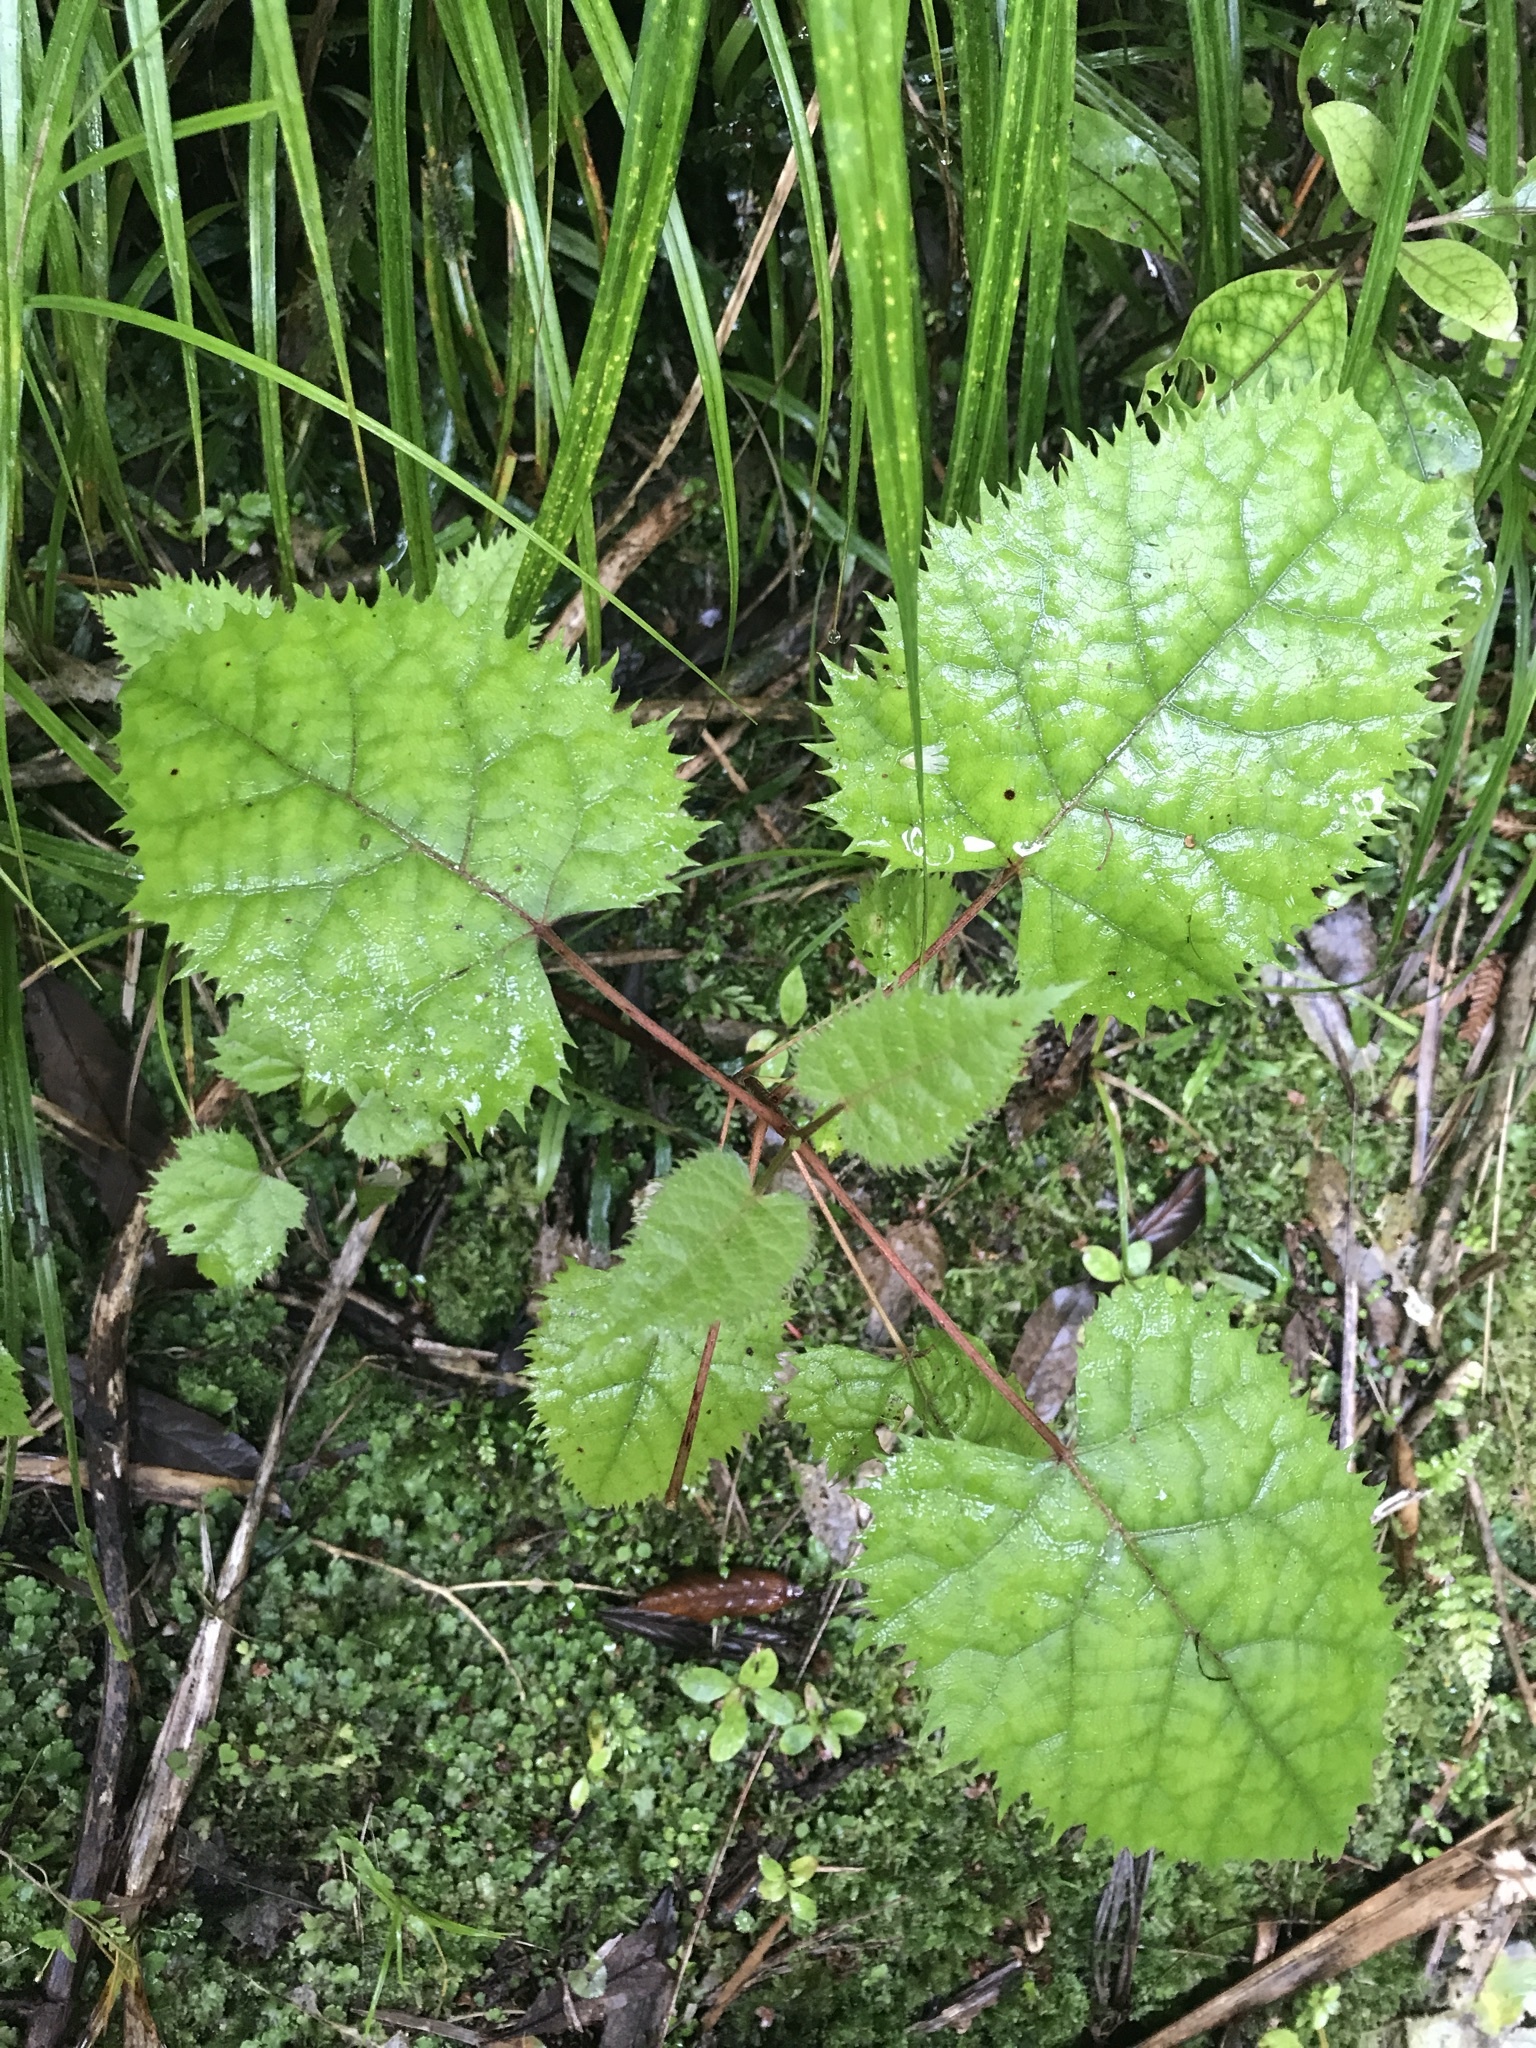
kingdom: Plantae
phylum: Tracheophyta
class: Magnoliopsida
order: Oxalidales
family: Elaeocarpaceae
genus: Aristotelia
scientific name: Aristotelia serrata
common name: New zealand wineberry
